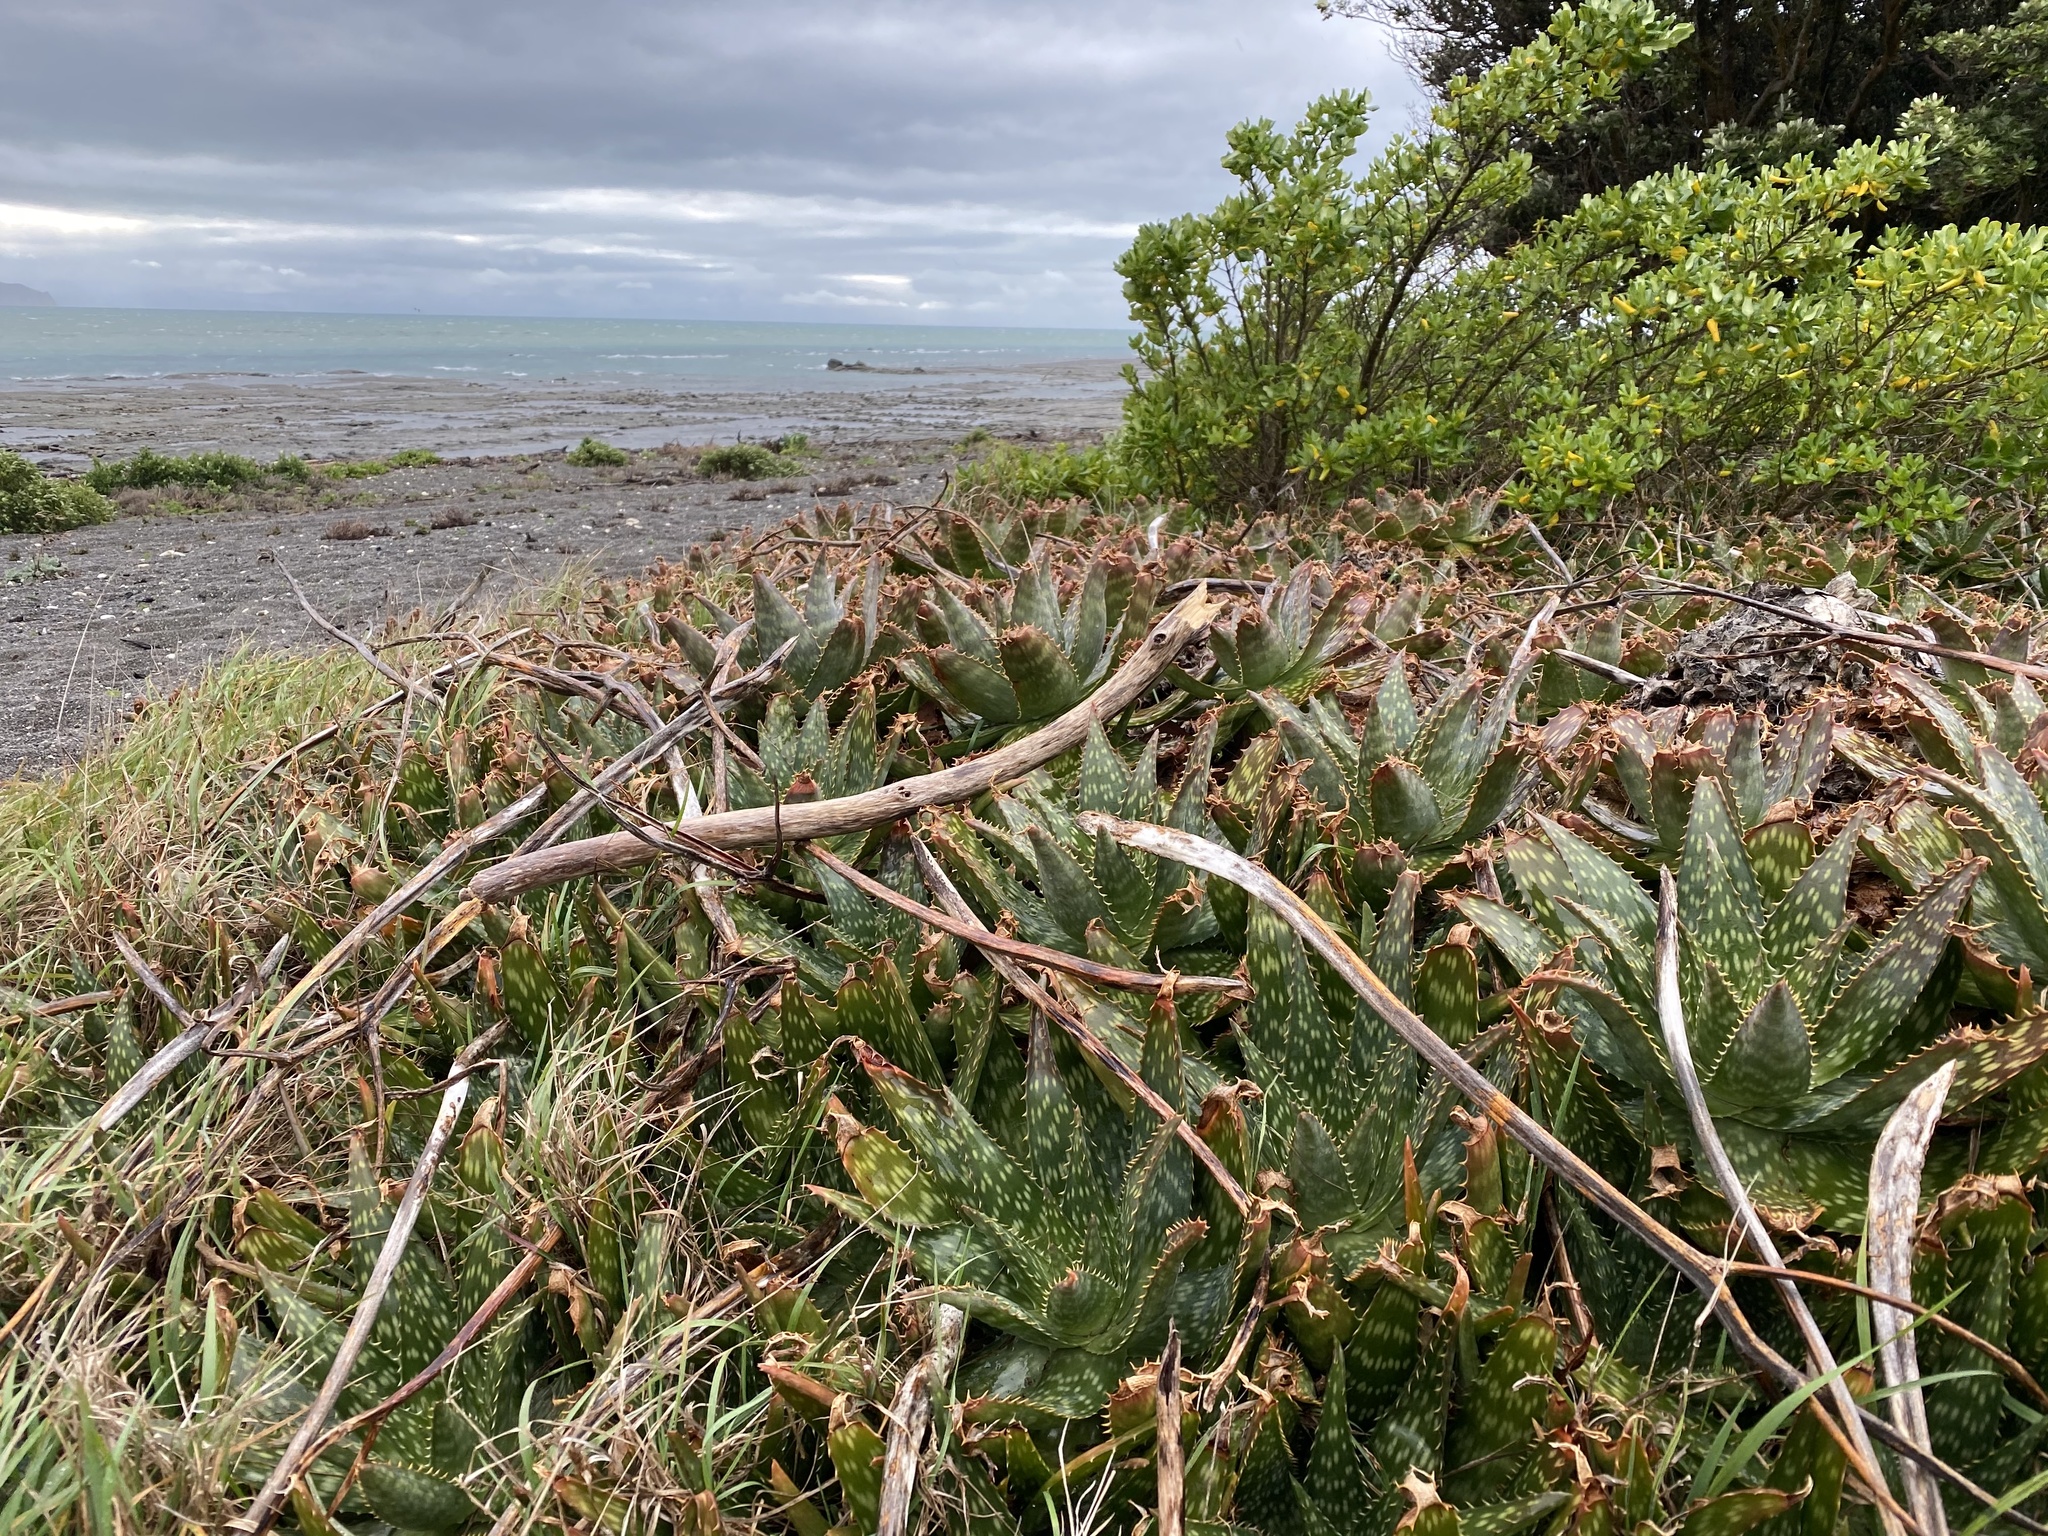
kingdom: Plantae
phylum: Tracheophyta
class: Liliopsida
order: Asparagales
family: Asphodelaceae
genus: Aloe
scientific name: Aloe maculata
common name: Broadleaf aloe
